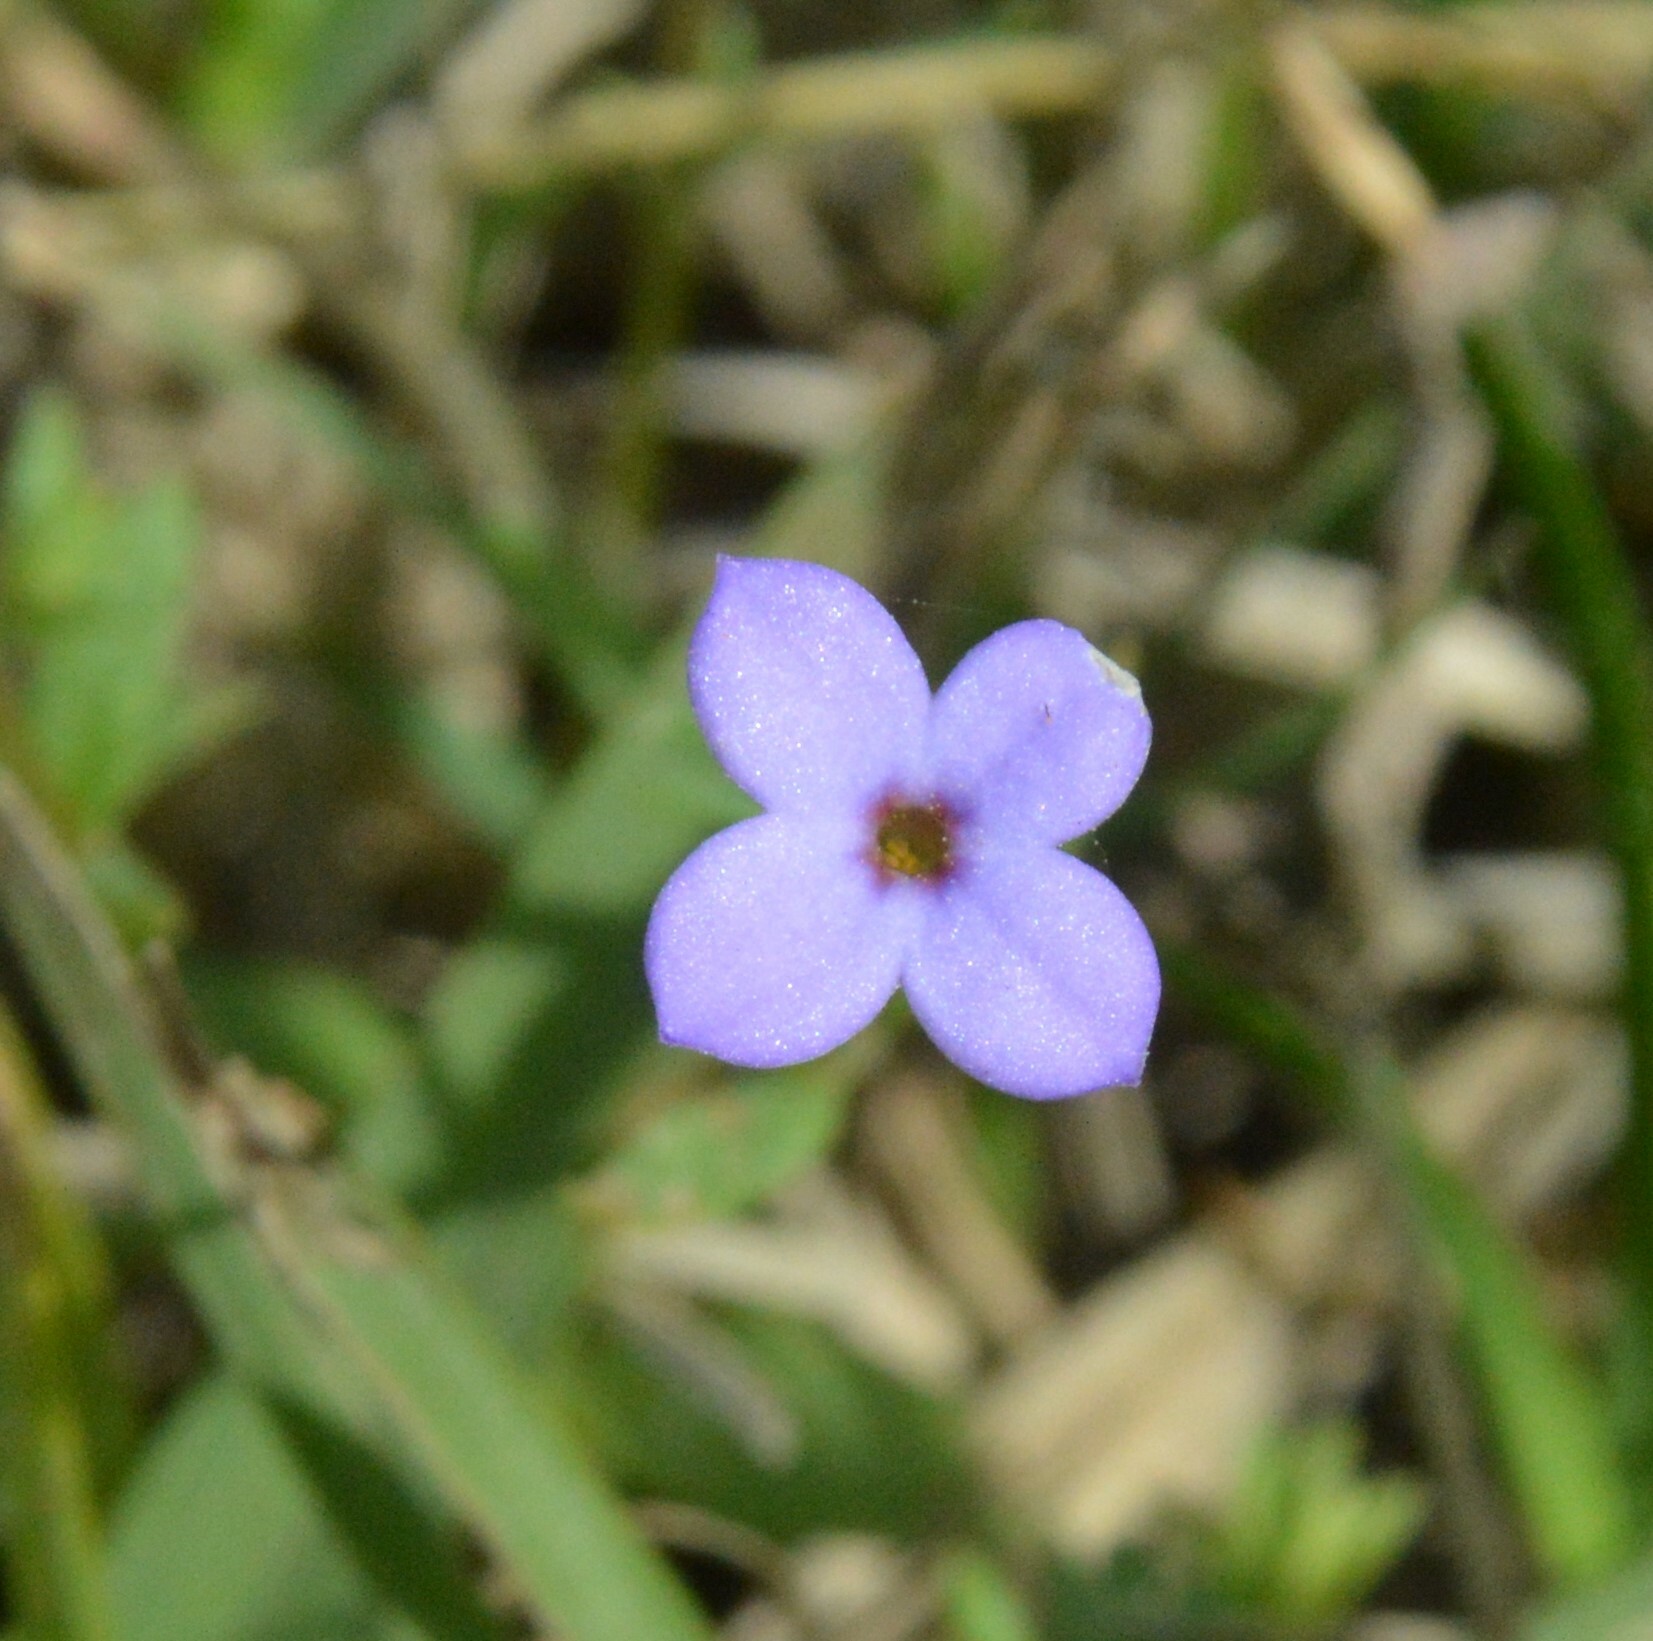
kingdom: Plantae
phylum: Tracheophyta
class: Magnoliopsida
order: Gentianales
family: Rubiaceae
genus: Houstonia
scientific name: Houstonia pusilla
